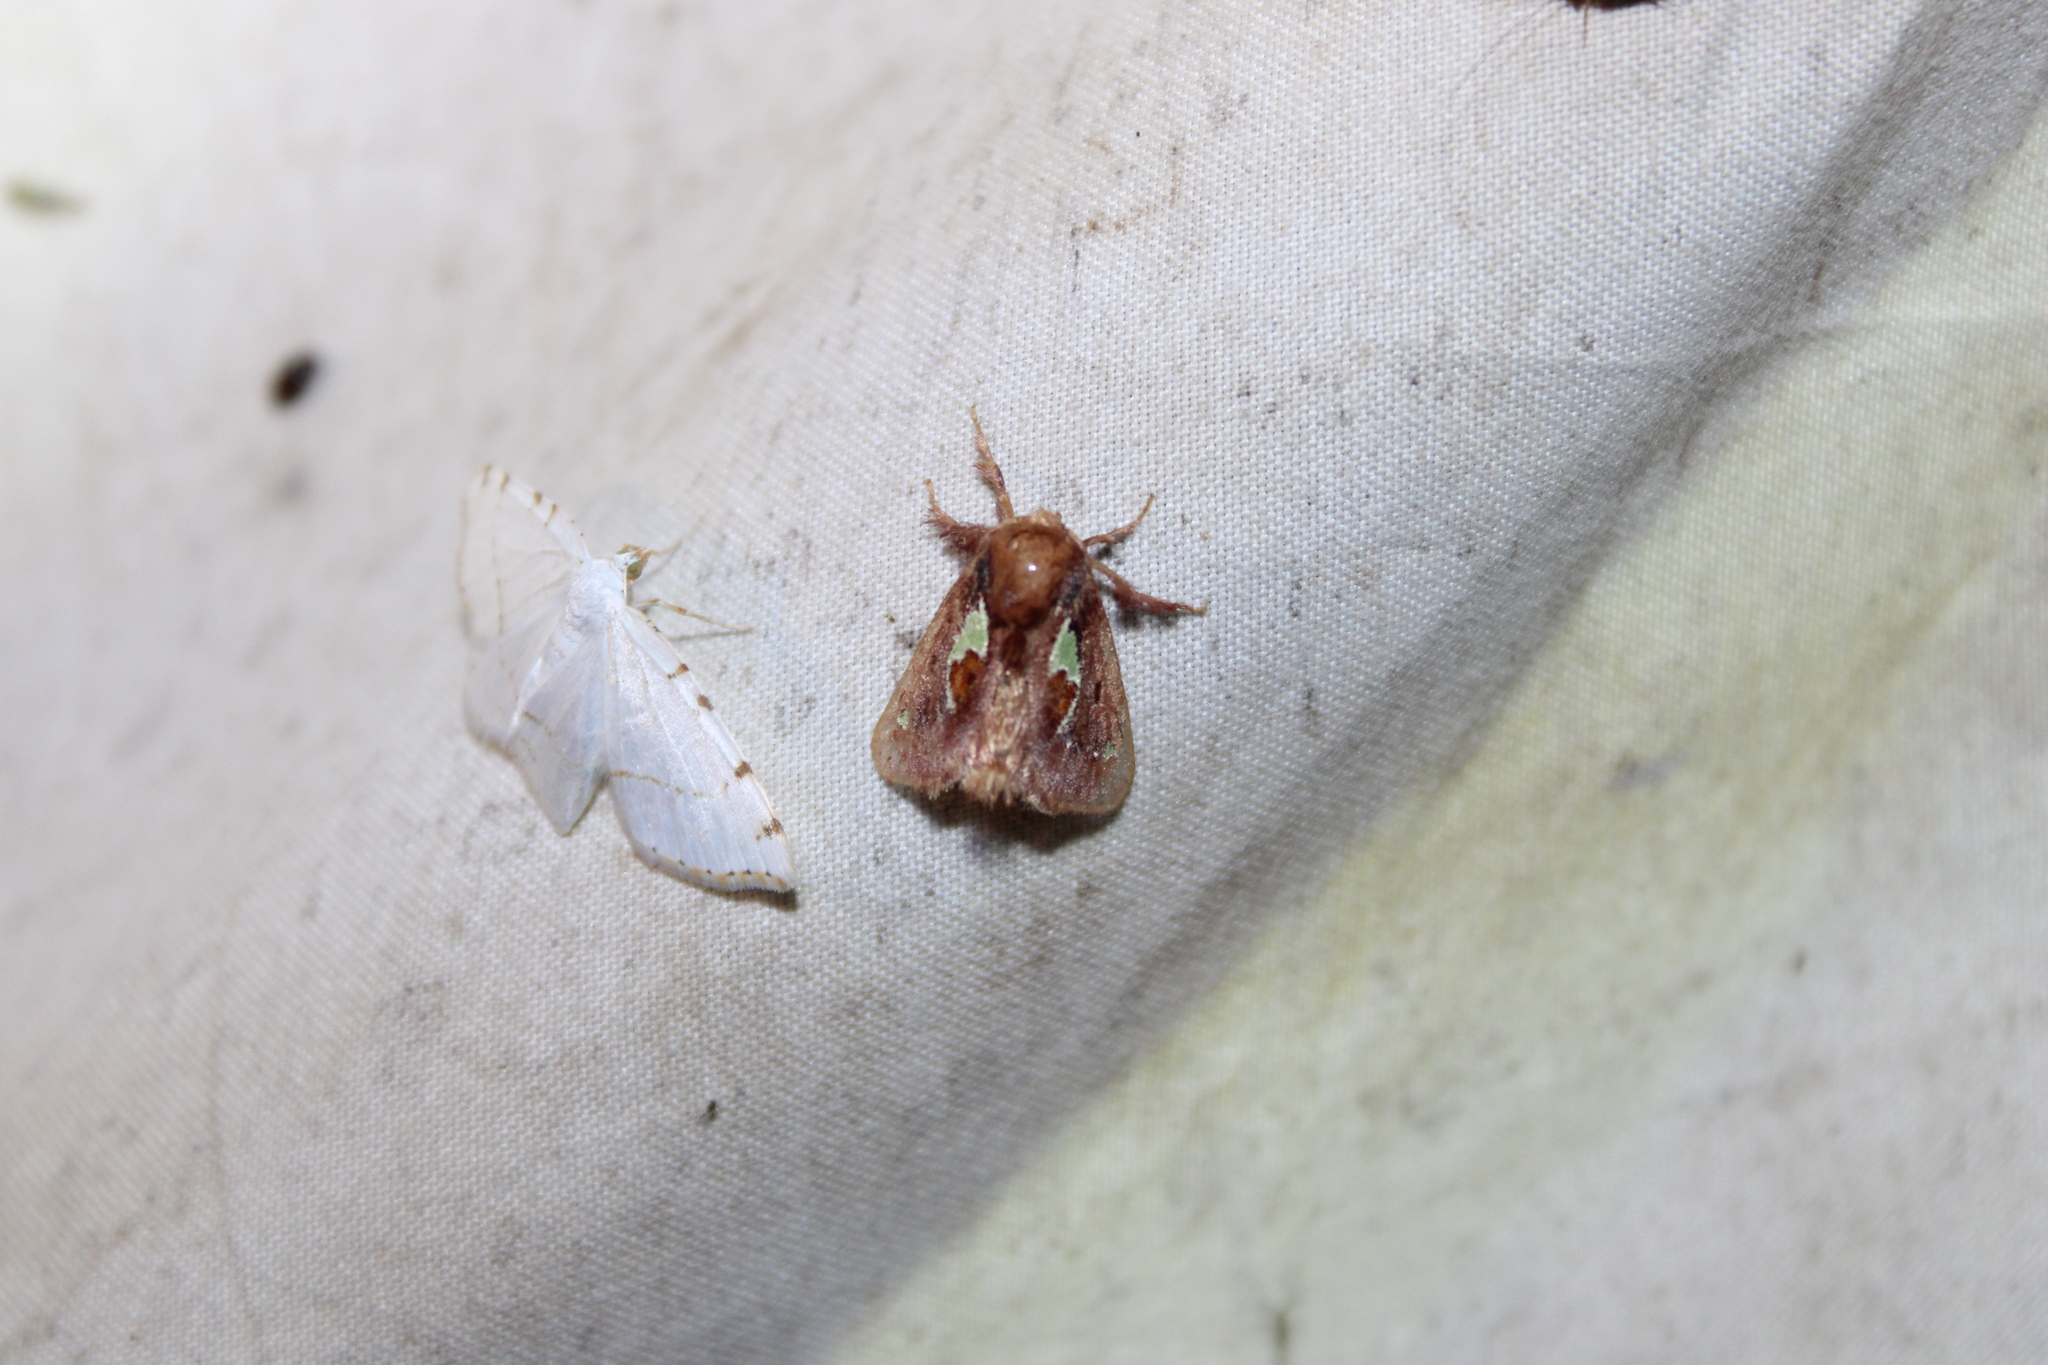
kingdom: Animalia
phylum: Arthropoda
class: Insecta
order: Lepidoptera
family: Limacodidae
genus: Euclea
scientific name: Euclea delphinii
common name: Spiny oak-slug moth
